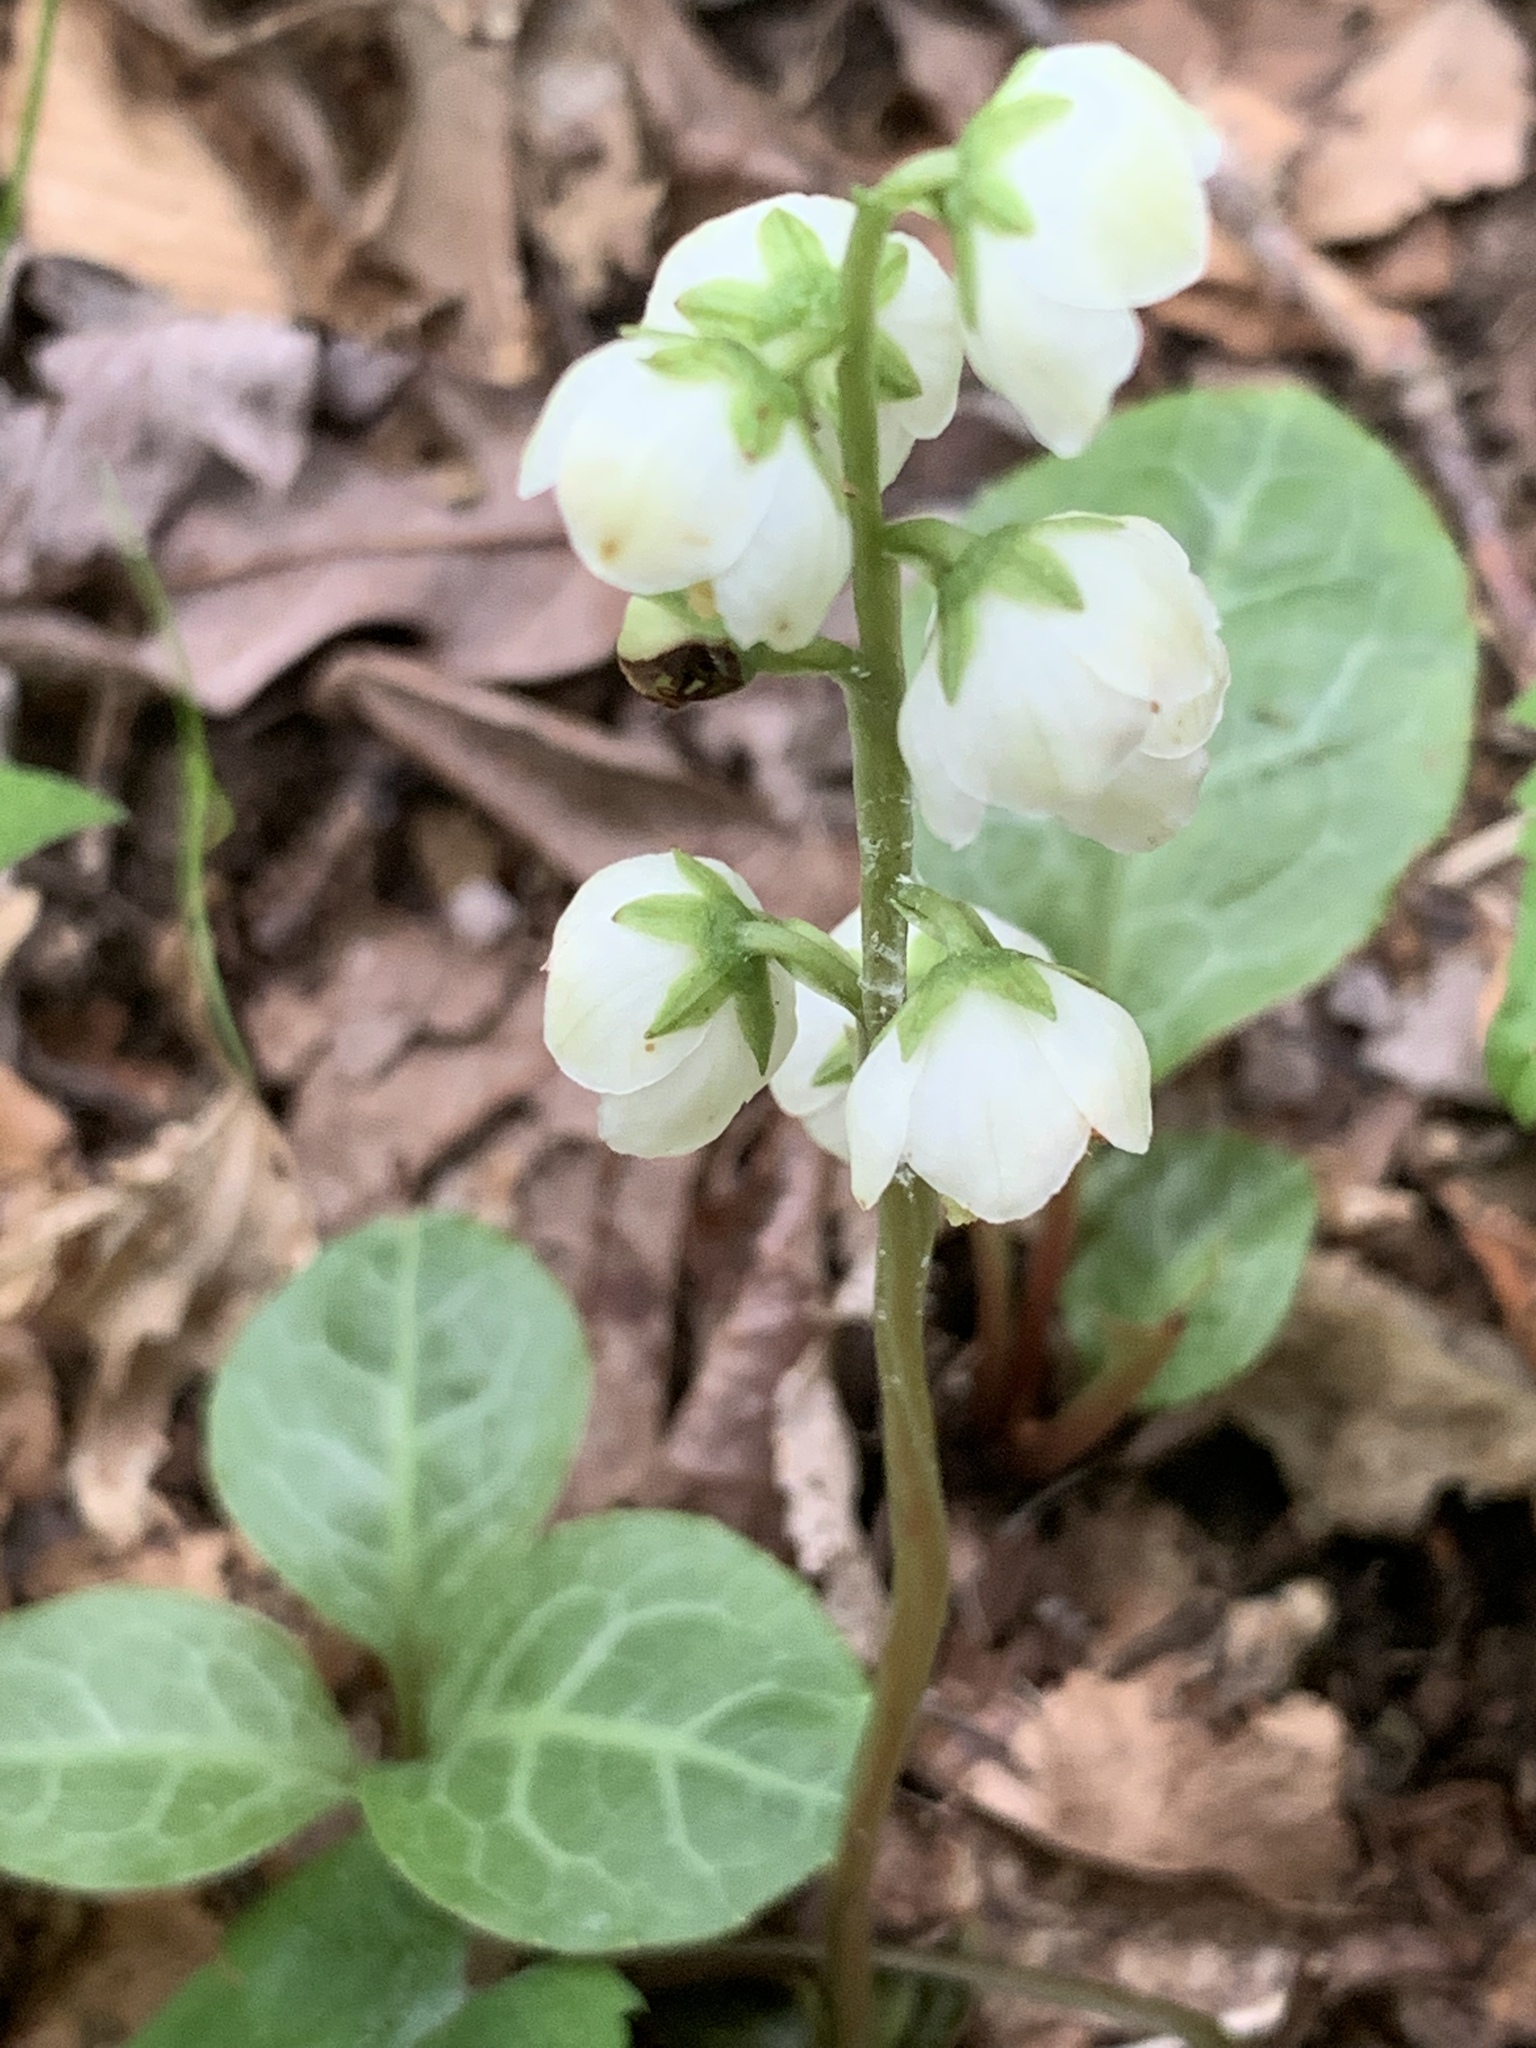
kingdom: Plantae
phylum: Tracheophyta
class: Magnoliopsida
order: Ericales
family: Ericaceae
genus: Pyrola
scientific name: Pyrola americana
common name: American wintergreen
